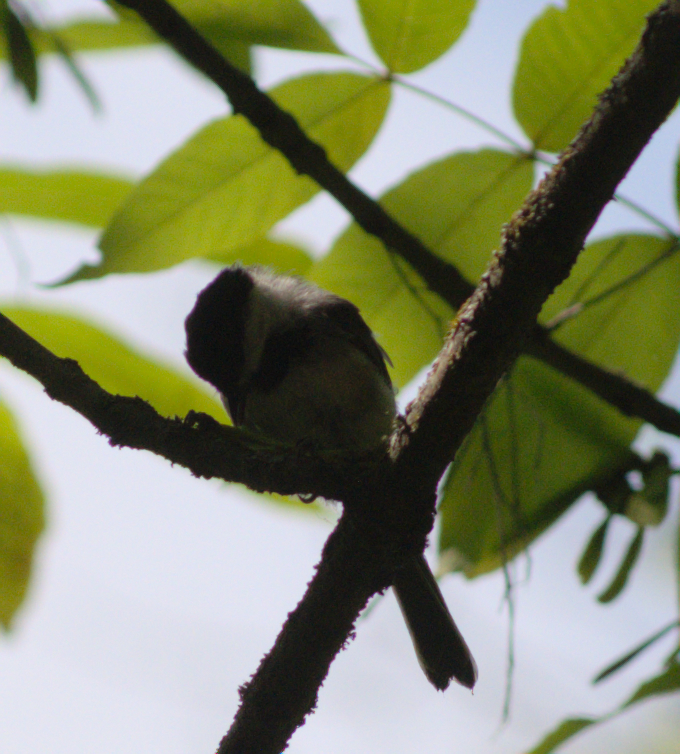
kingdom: Animalia
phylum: Chordata
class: Aves
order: Passeriformes
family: Paridae
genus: Poecile
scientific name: Poecile atricapillus
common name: Black-capped chickadee
